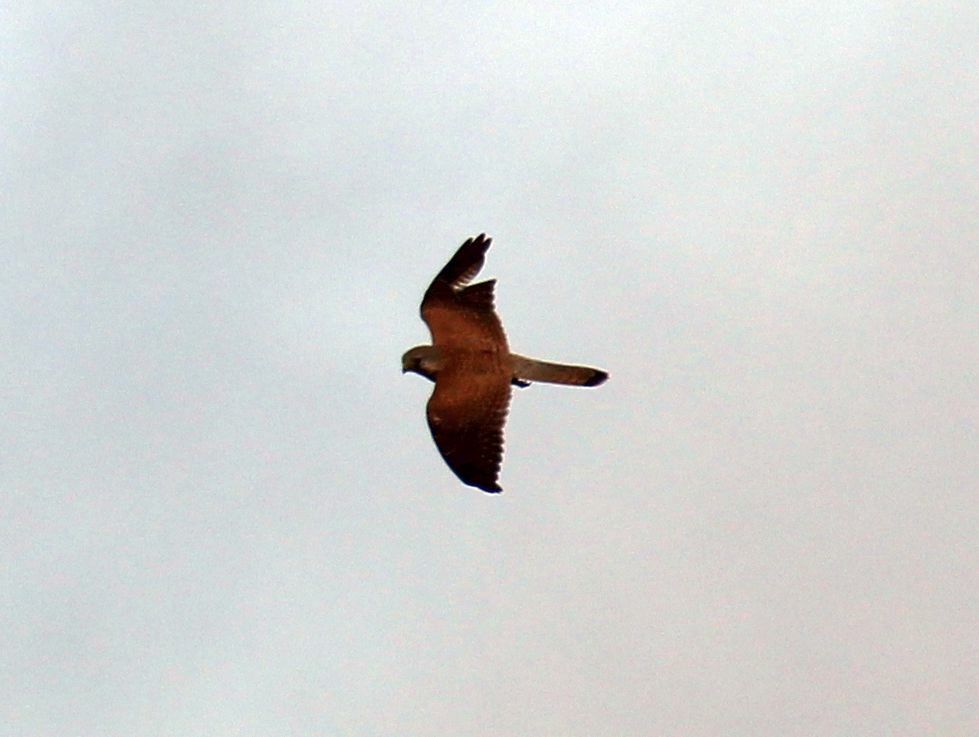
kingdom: Animalia
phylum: Chordata
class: Aves
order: Falconiformes
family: Falconidae
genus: Falco
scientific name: Falco tinnunculus
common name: Common kestrel
